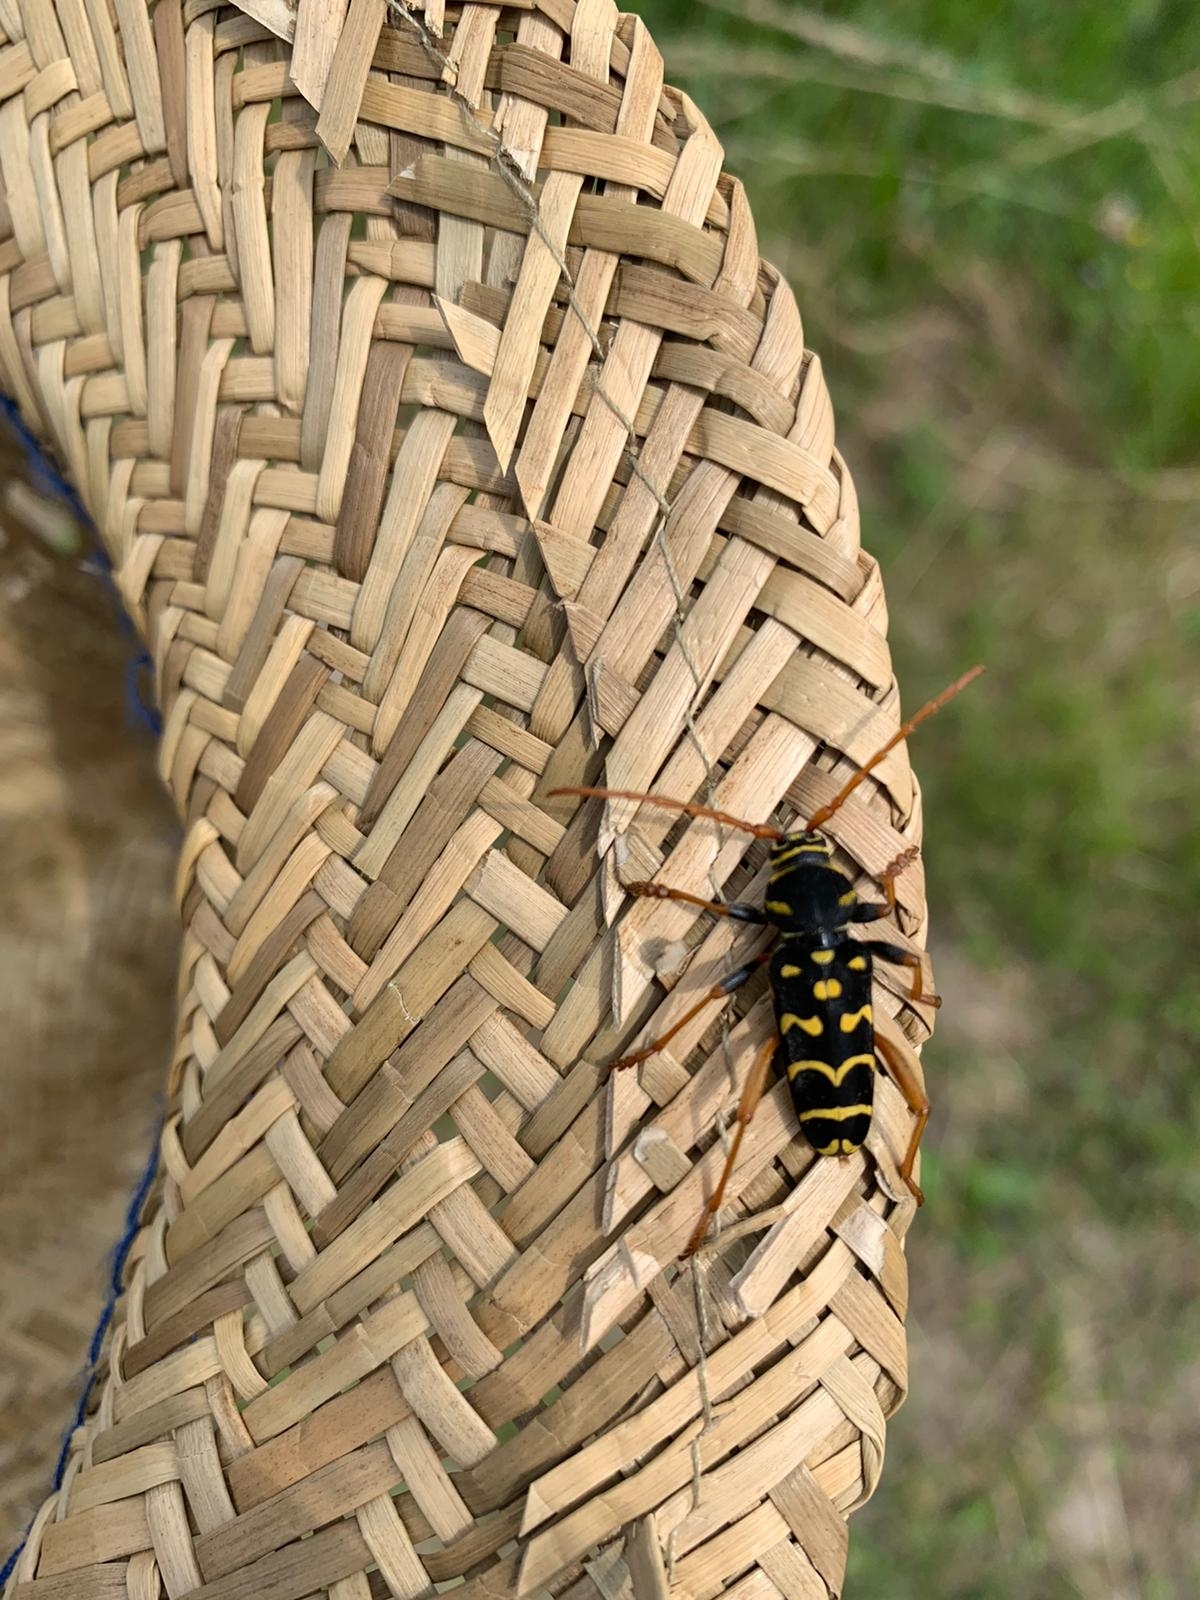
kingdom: Animalia
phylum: Arthropoda
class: Insecta
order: Coleoptera
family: Cerambycidae
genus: Plagionotus
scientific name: Plagionotus arcuatus
